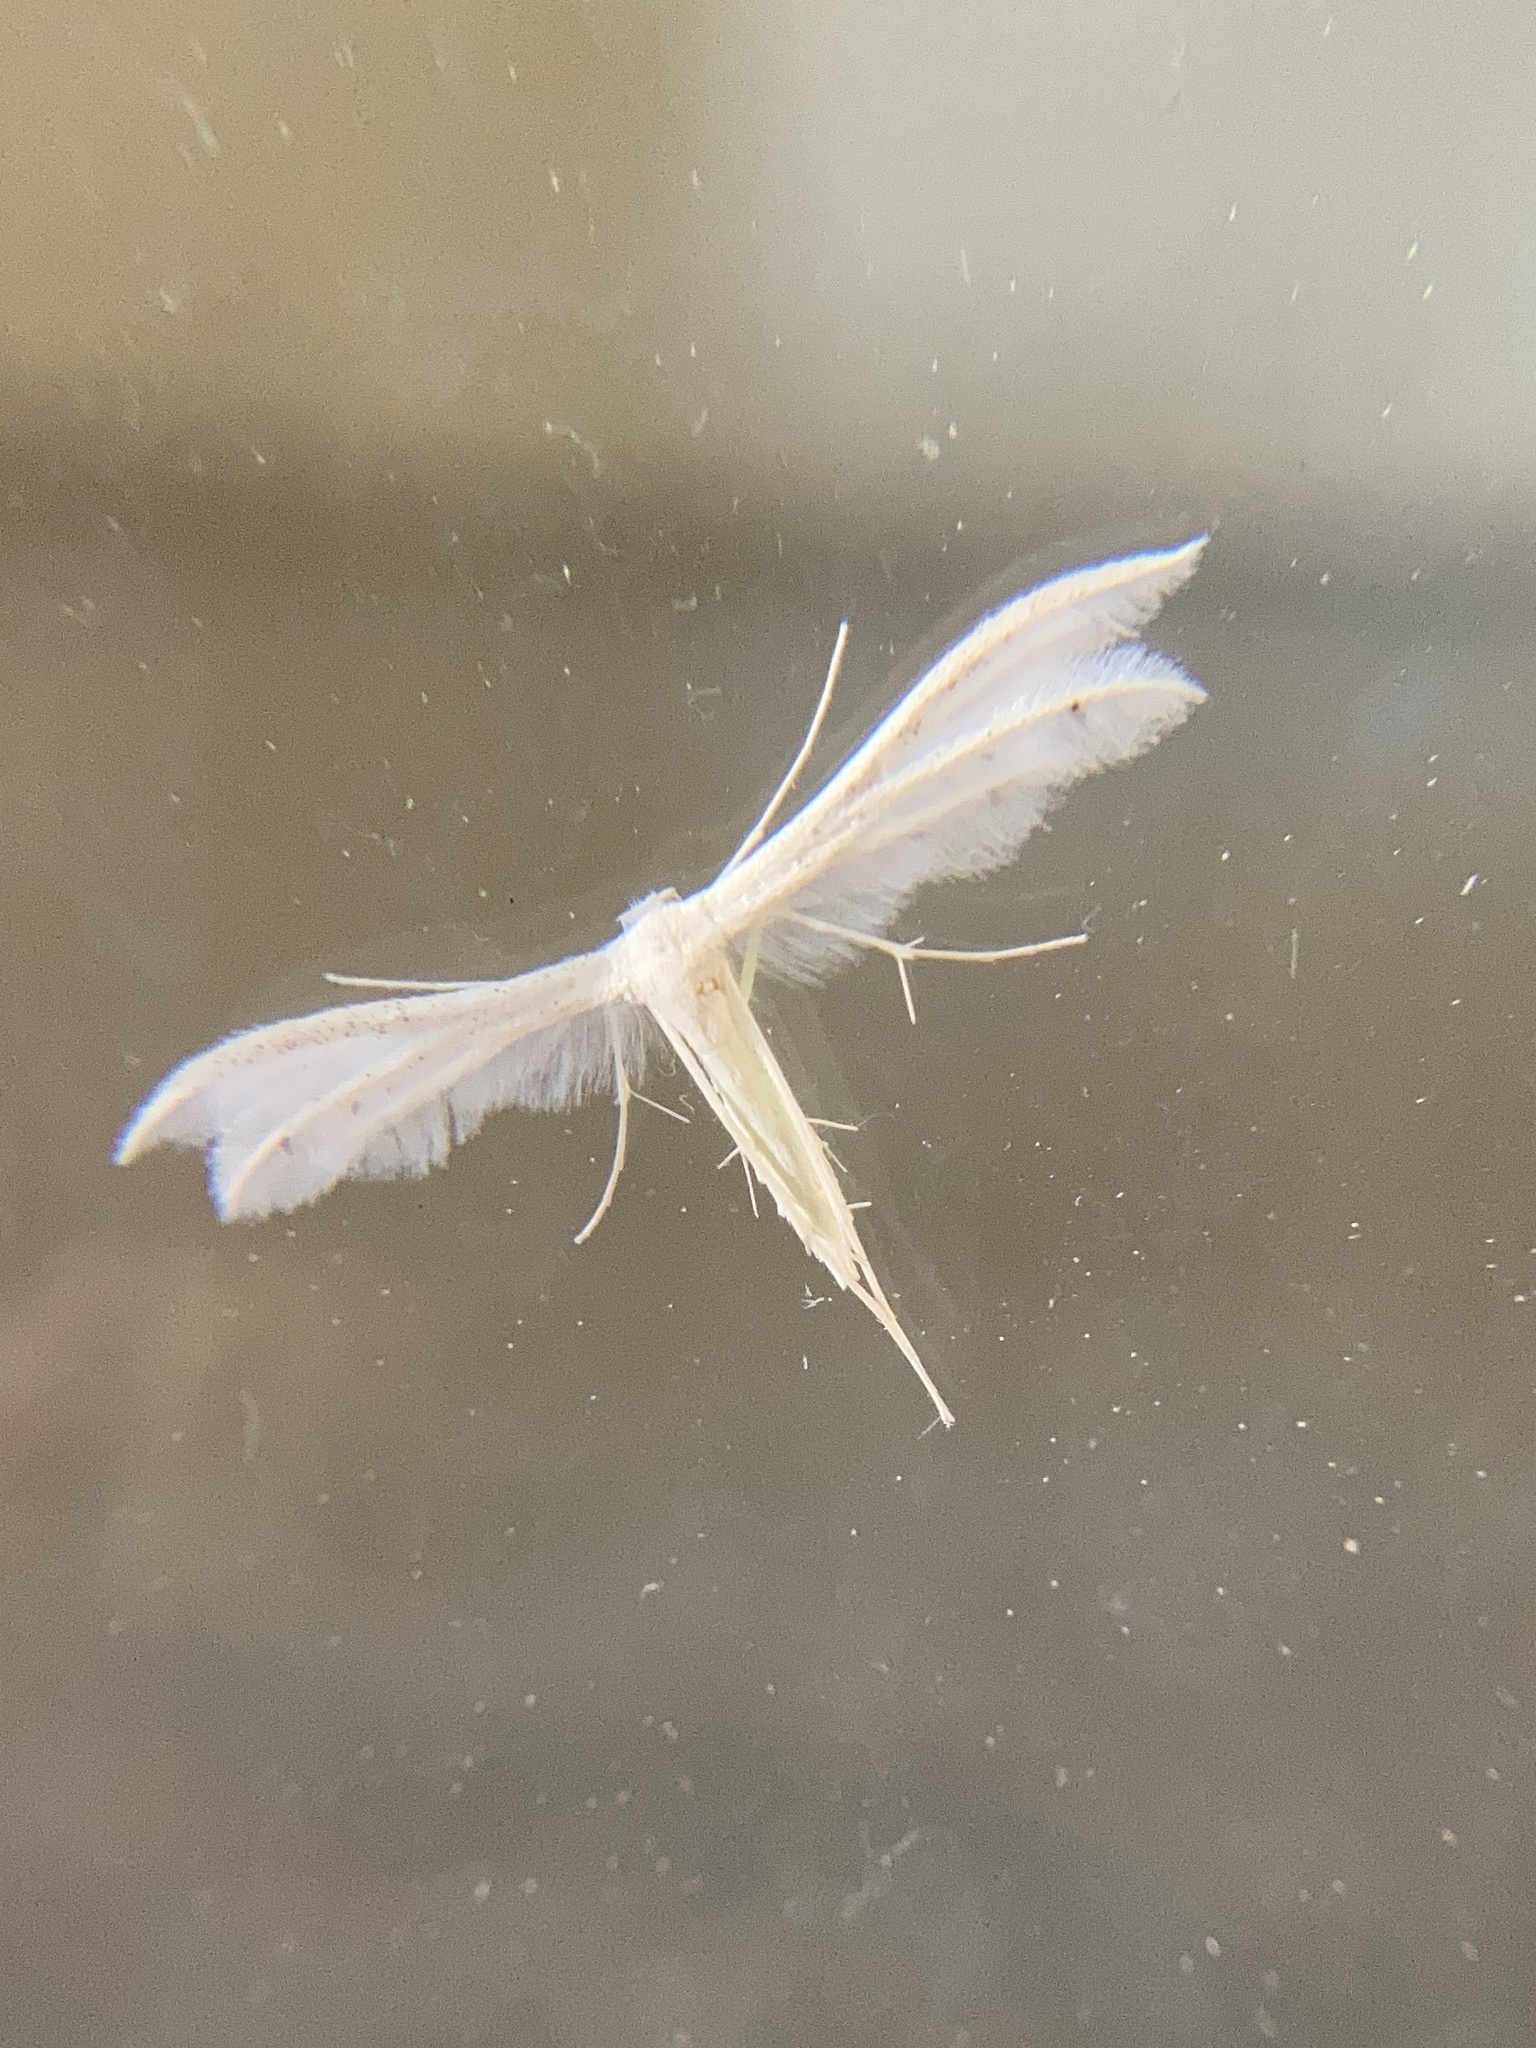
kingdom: Animalia
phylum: Arthropoda
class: Insecta
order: Lepidoptera
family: Pterophoridae
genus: Pterophorus
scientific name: Pterophorus pentadactyla
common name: White plume moth
